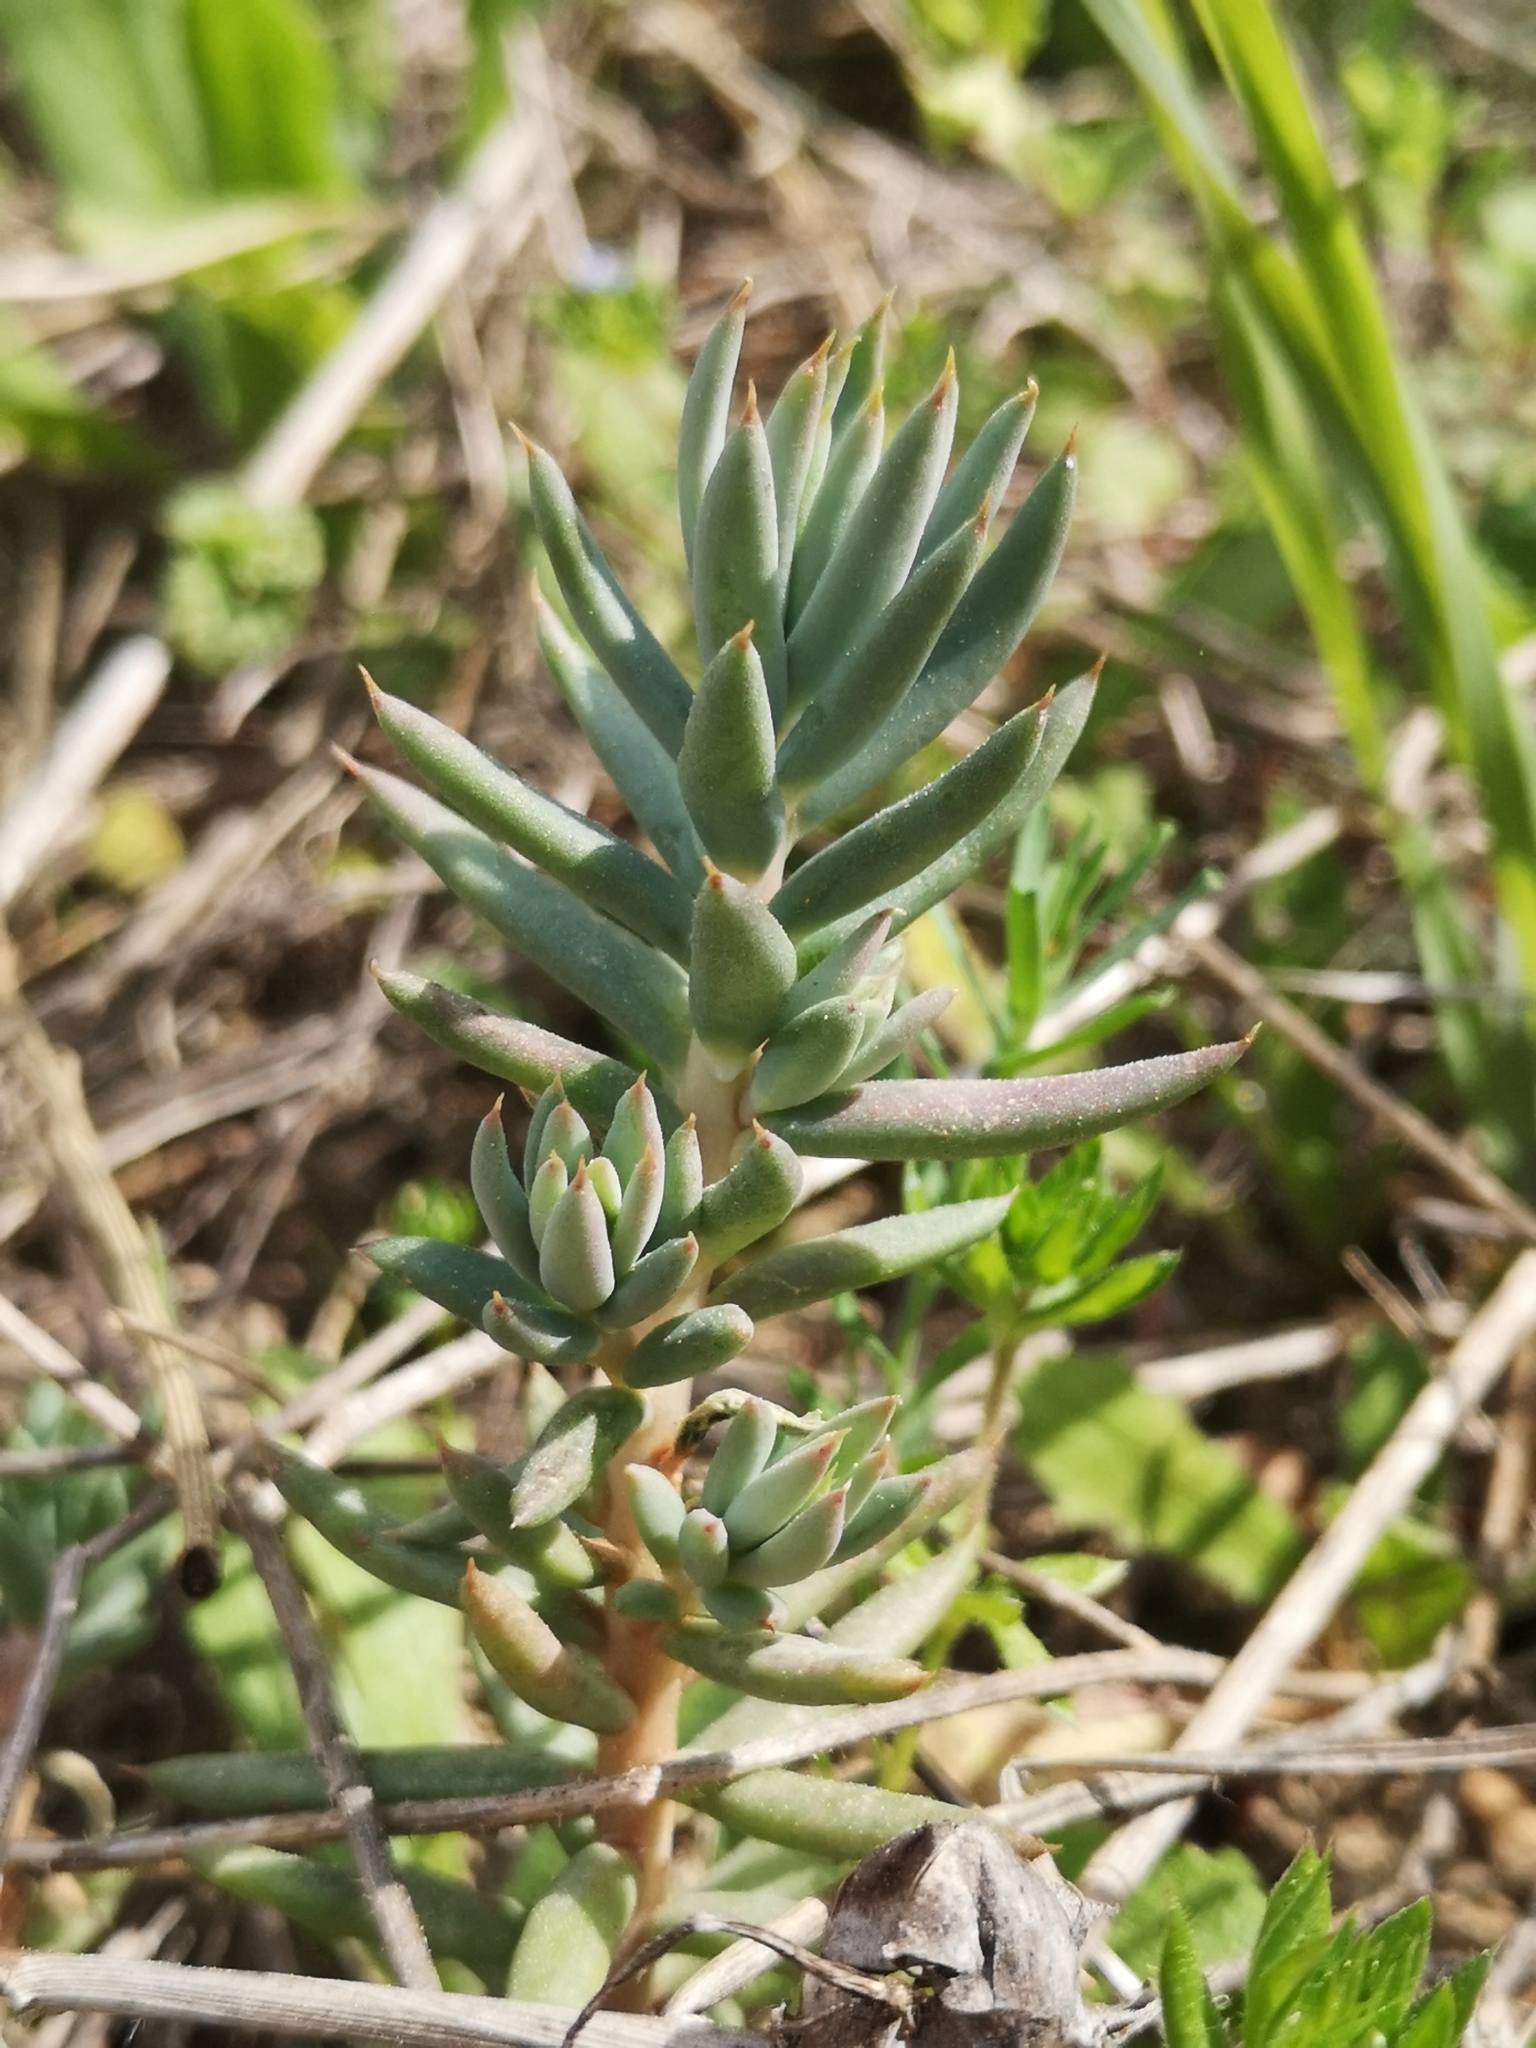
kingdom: Plantae
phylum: Tracheophyta
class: Magnoliopsida
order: Saxifragales
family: Crassulaceae
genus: Petrosedum
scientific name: Petrosedum sediforme
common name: Pale stonecrop
